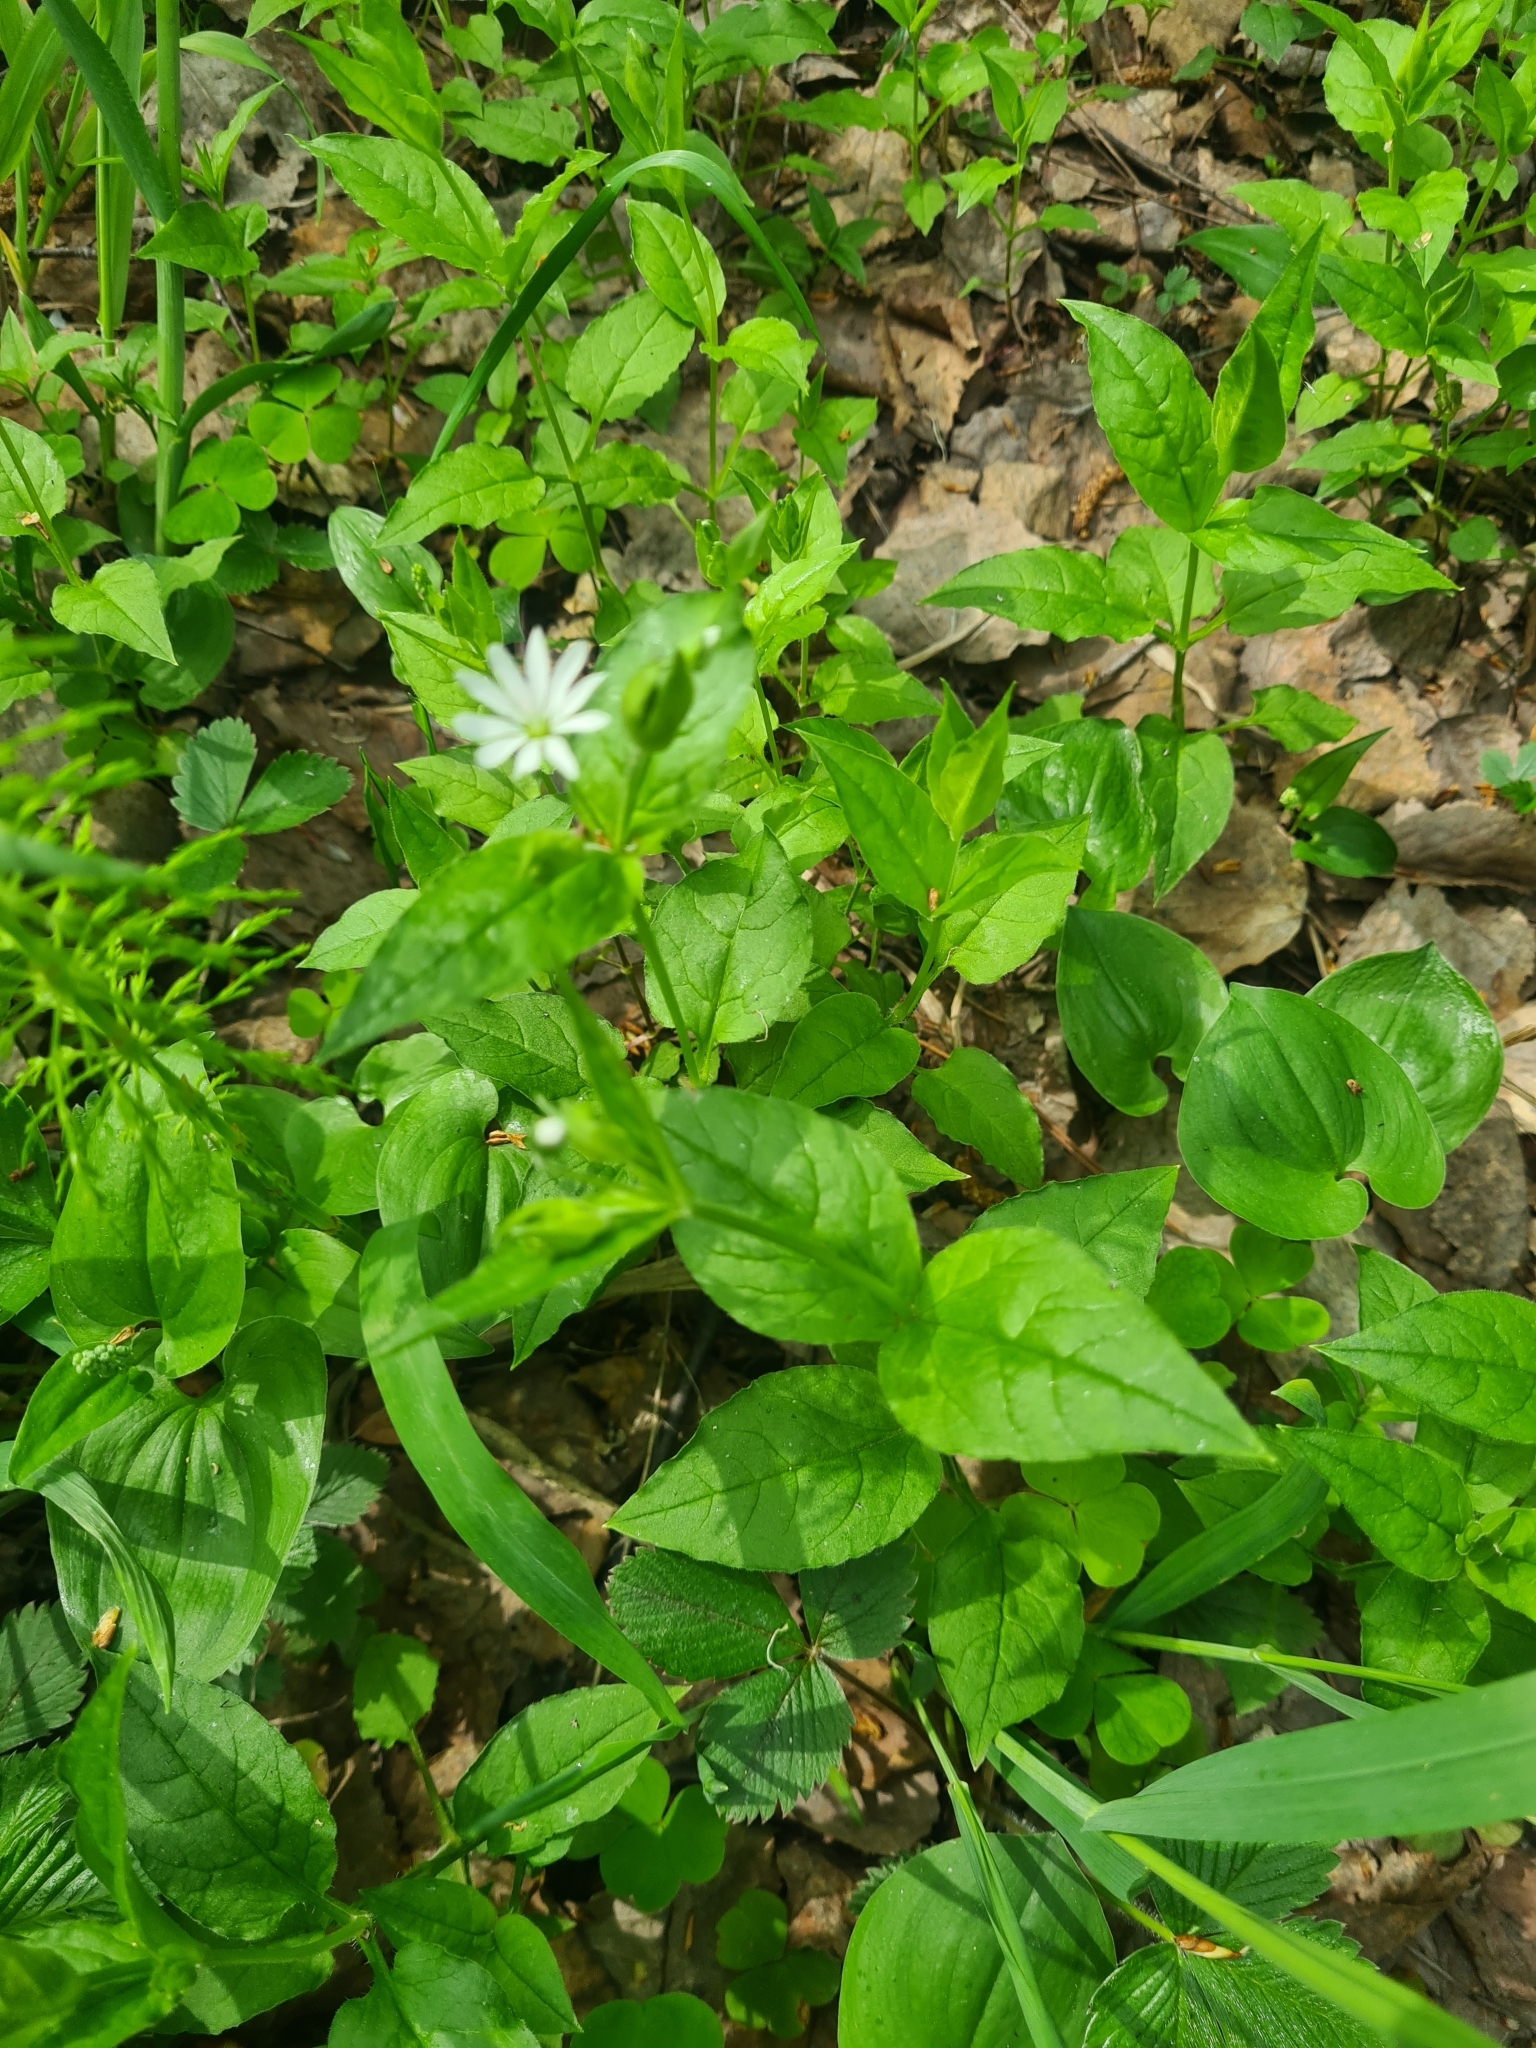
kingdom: Plantae
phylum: Tracheophyta
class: Magnoliopsida
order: Caryophyllales
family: Caryophyllaceae
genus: Stellaria
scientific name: Stellaria bungeana
